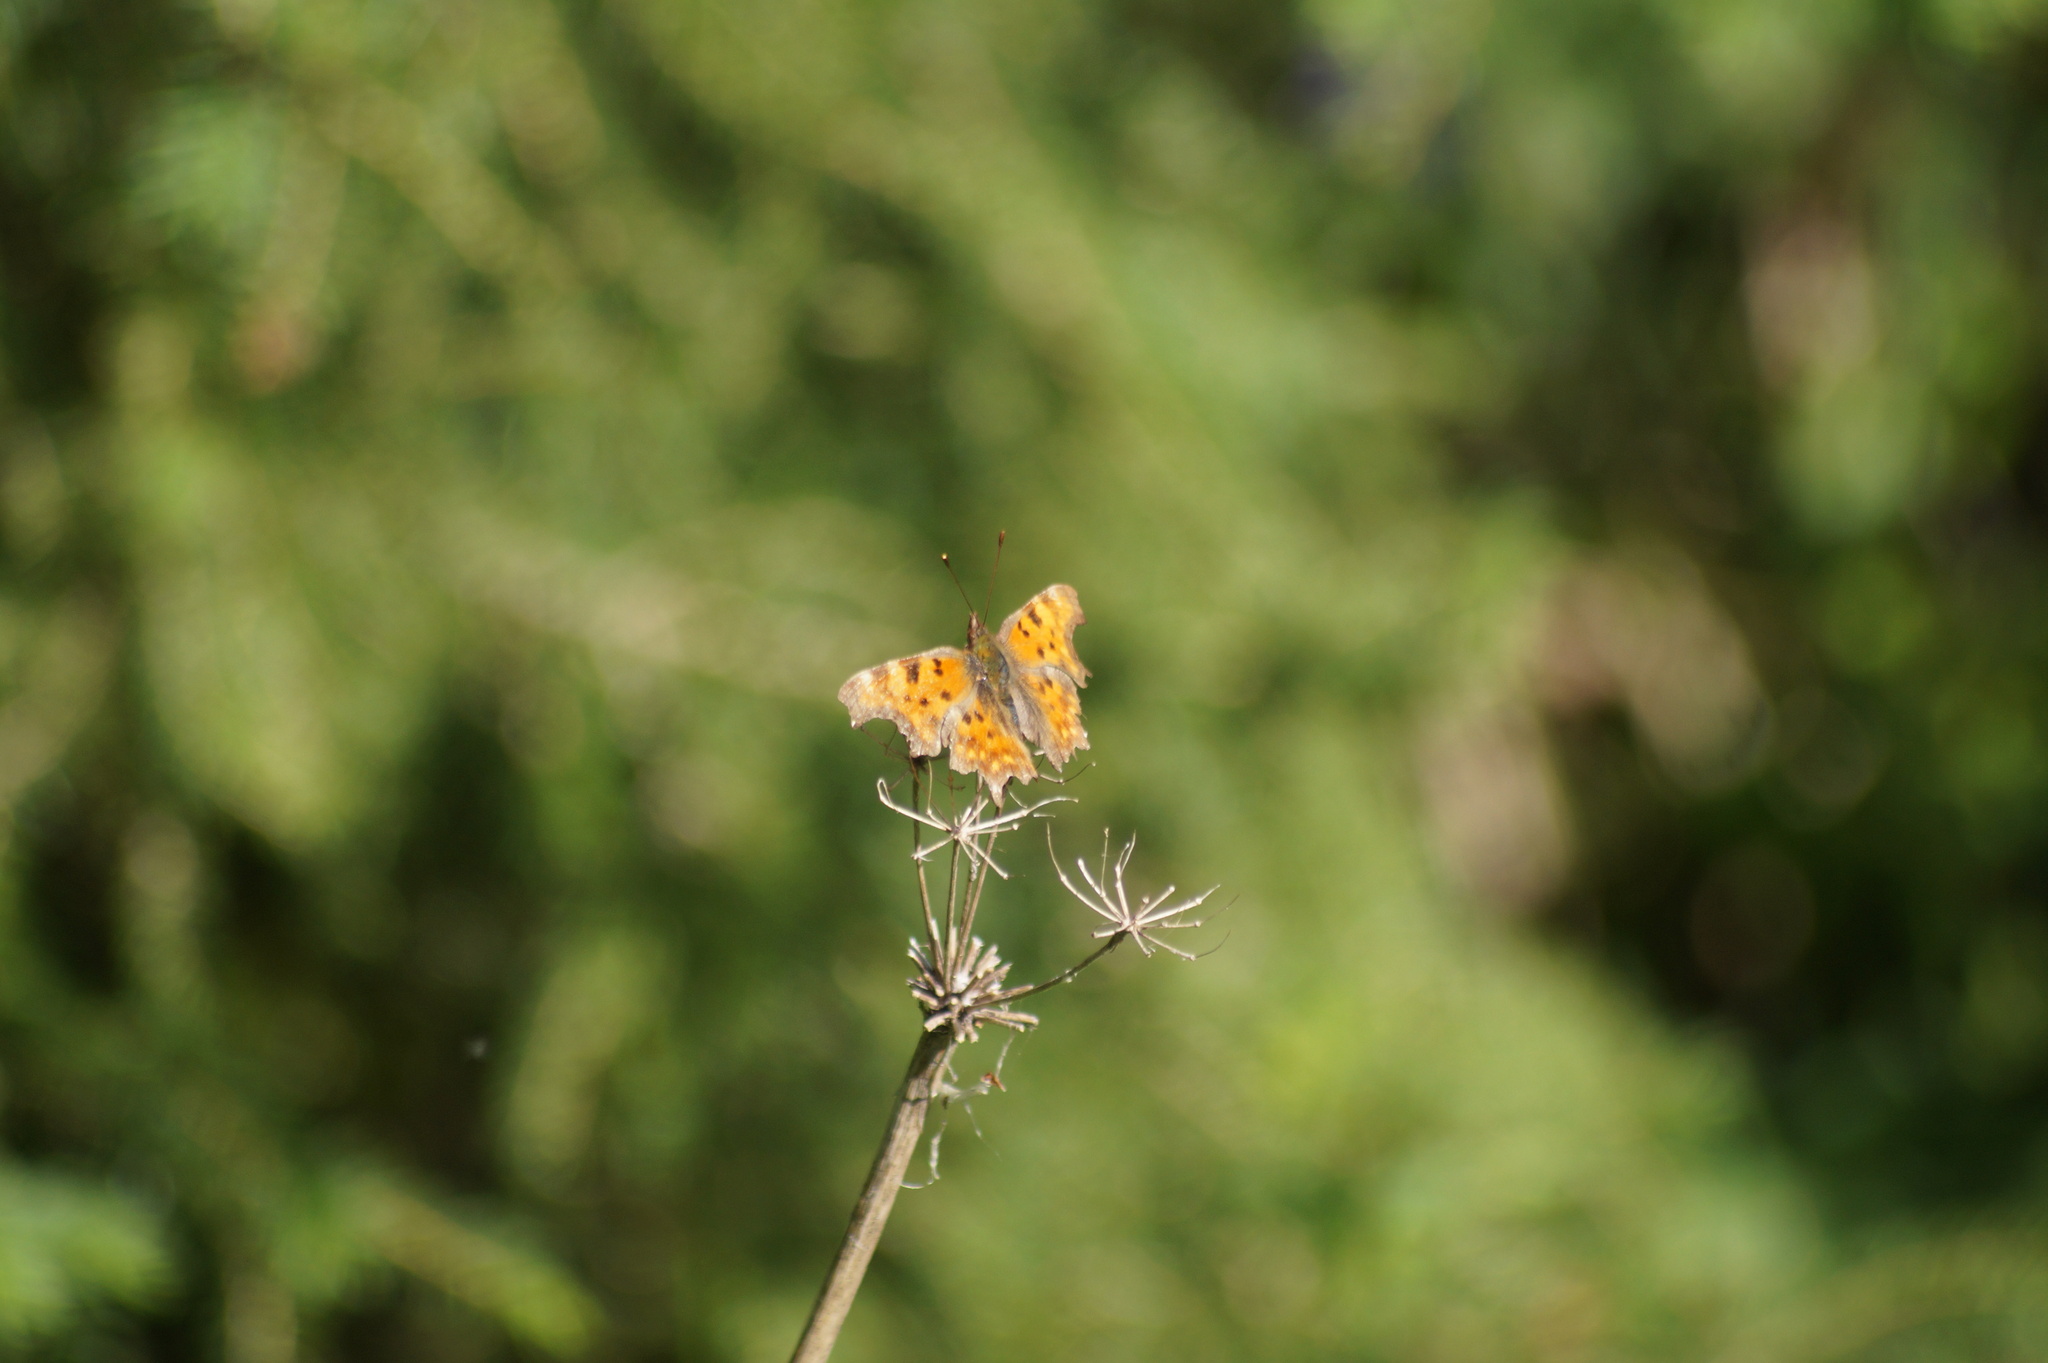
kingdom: Animalia
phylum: Arthropoda
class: Insecta
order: Lepidoptera
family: Nymphalidae
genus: Polygonia
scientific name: Polygonia c-album
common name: Comma
